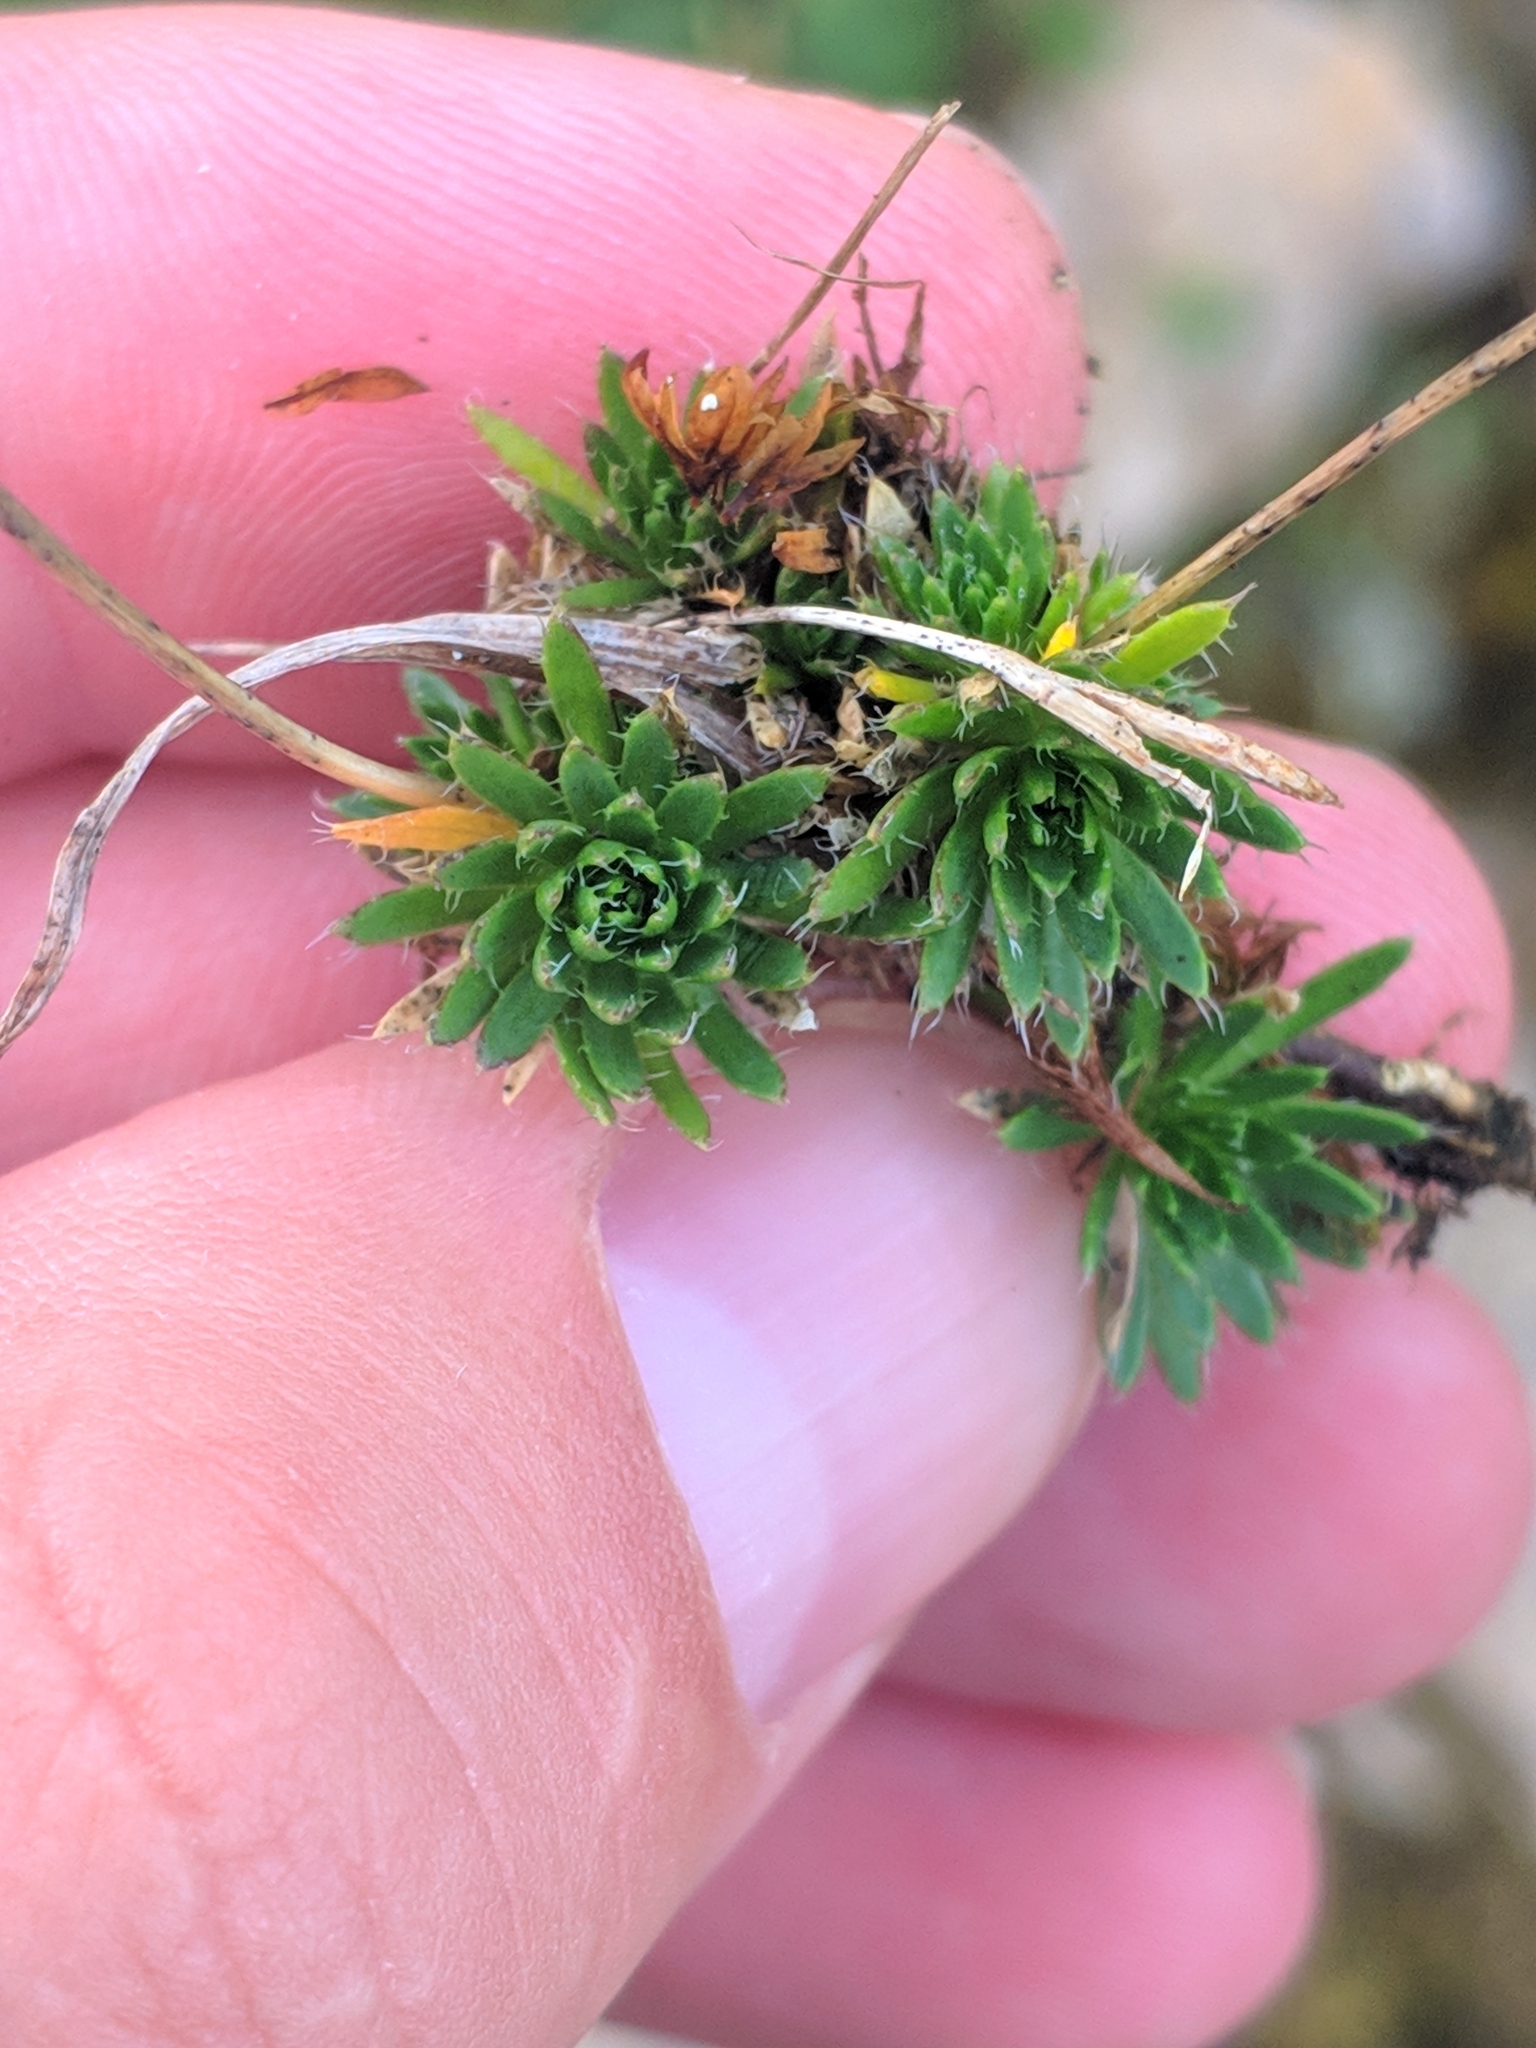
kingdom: Plantae
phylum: Tracheophyta
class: Magnoliopsida
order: Brassicales
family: Brassicaceae
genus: Draba
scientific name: Draba aizoides
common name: Yellow whitlowgrass
